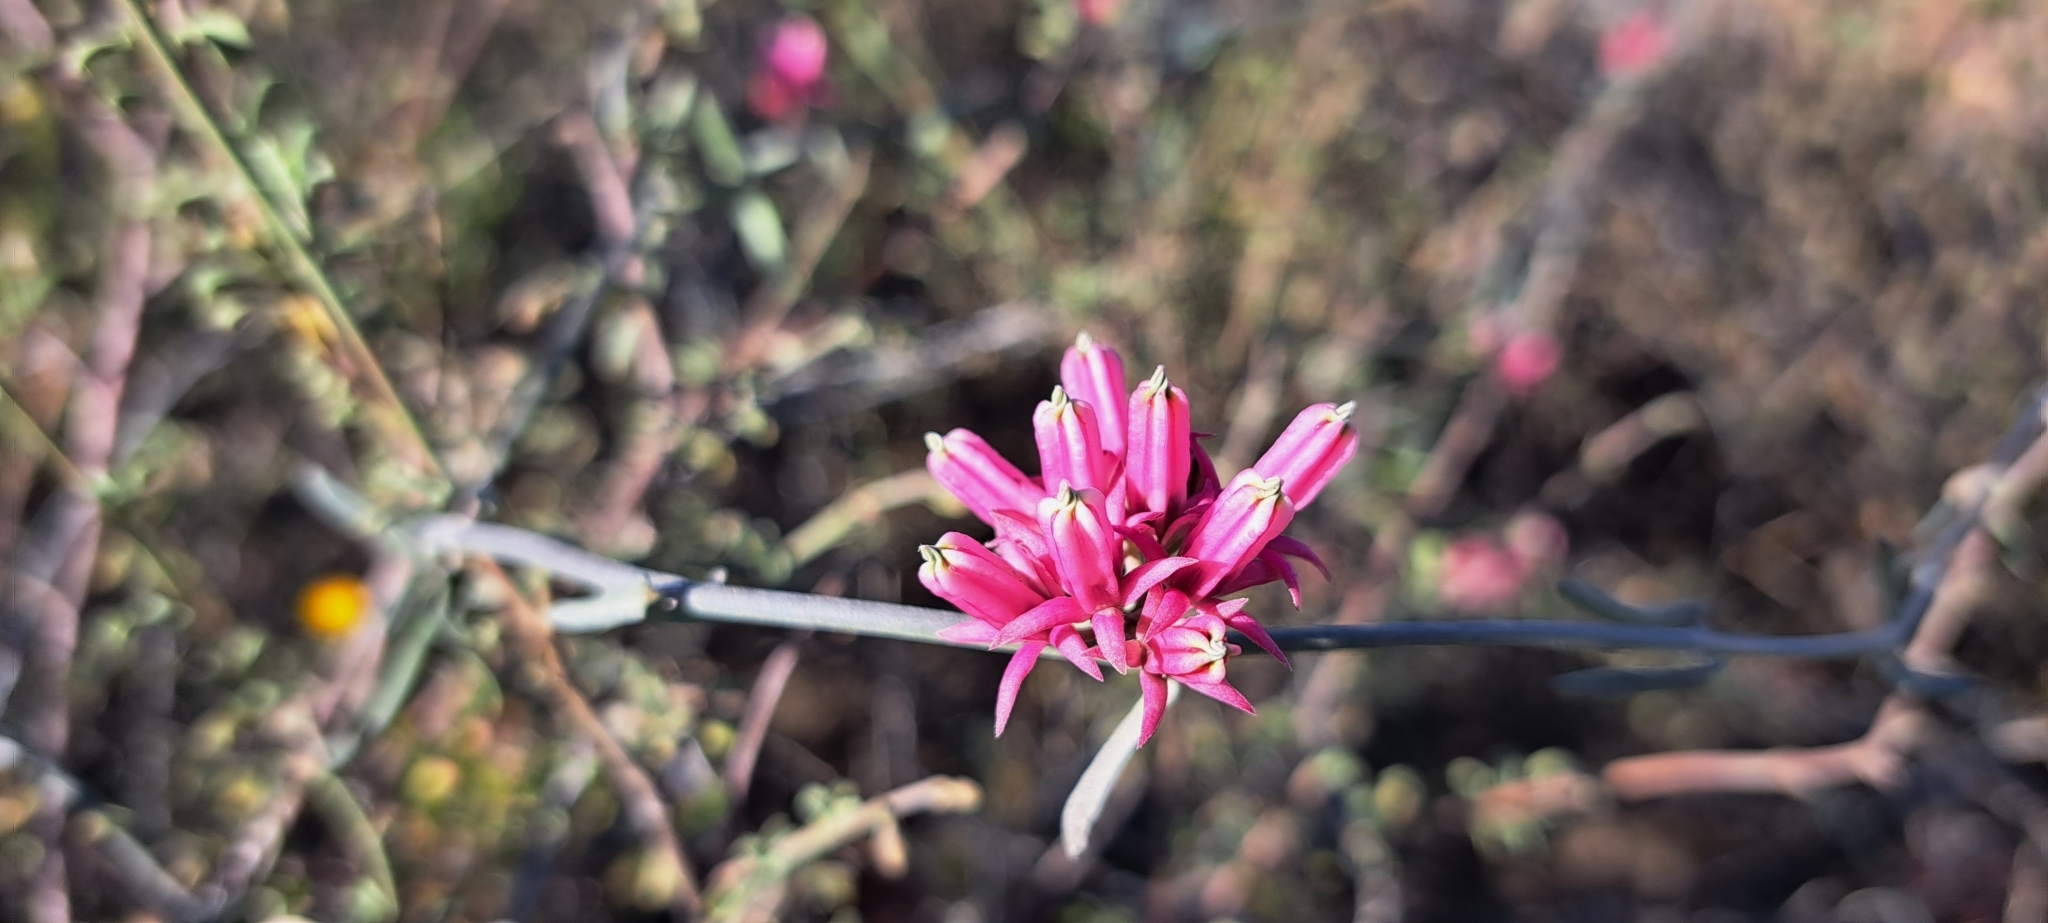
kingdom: Plantae
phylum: Tracheophyta
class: Magnoliopsida
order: Gentianales
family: Apocynaceae
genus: Microloma
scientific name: Microloma sagittatum
